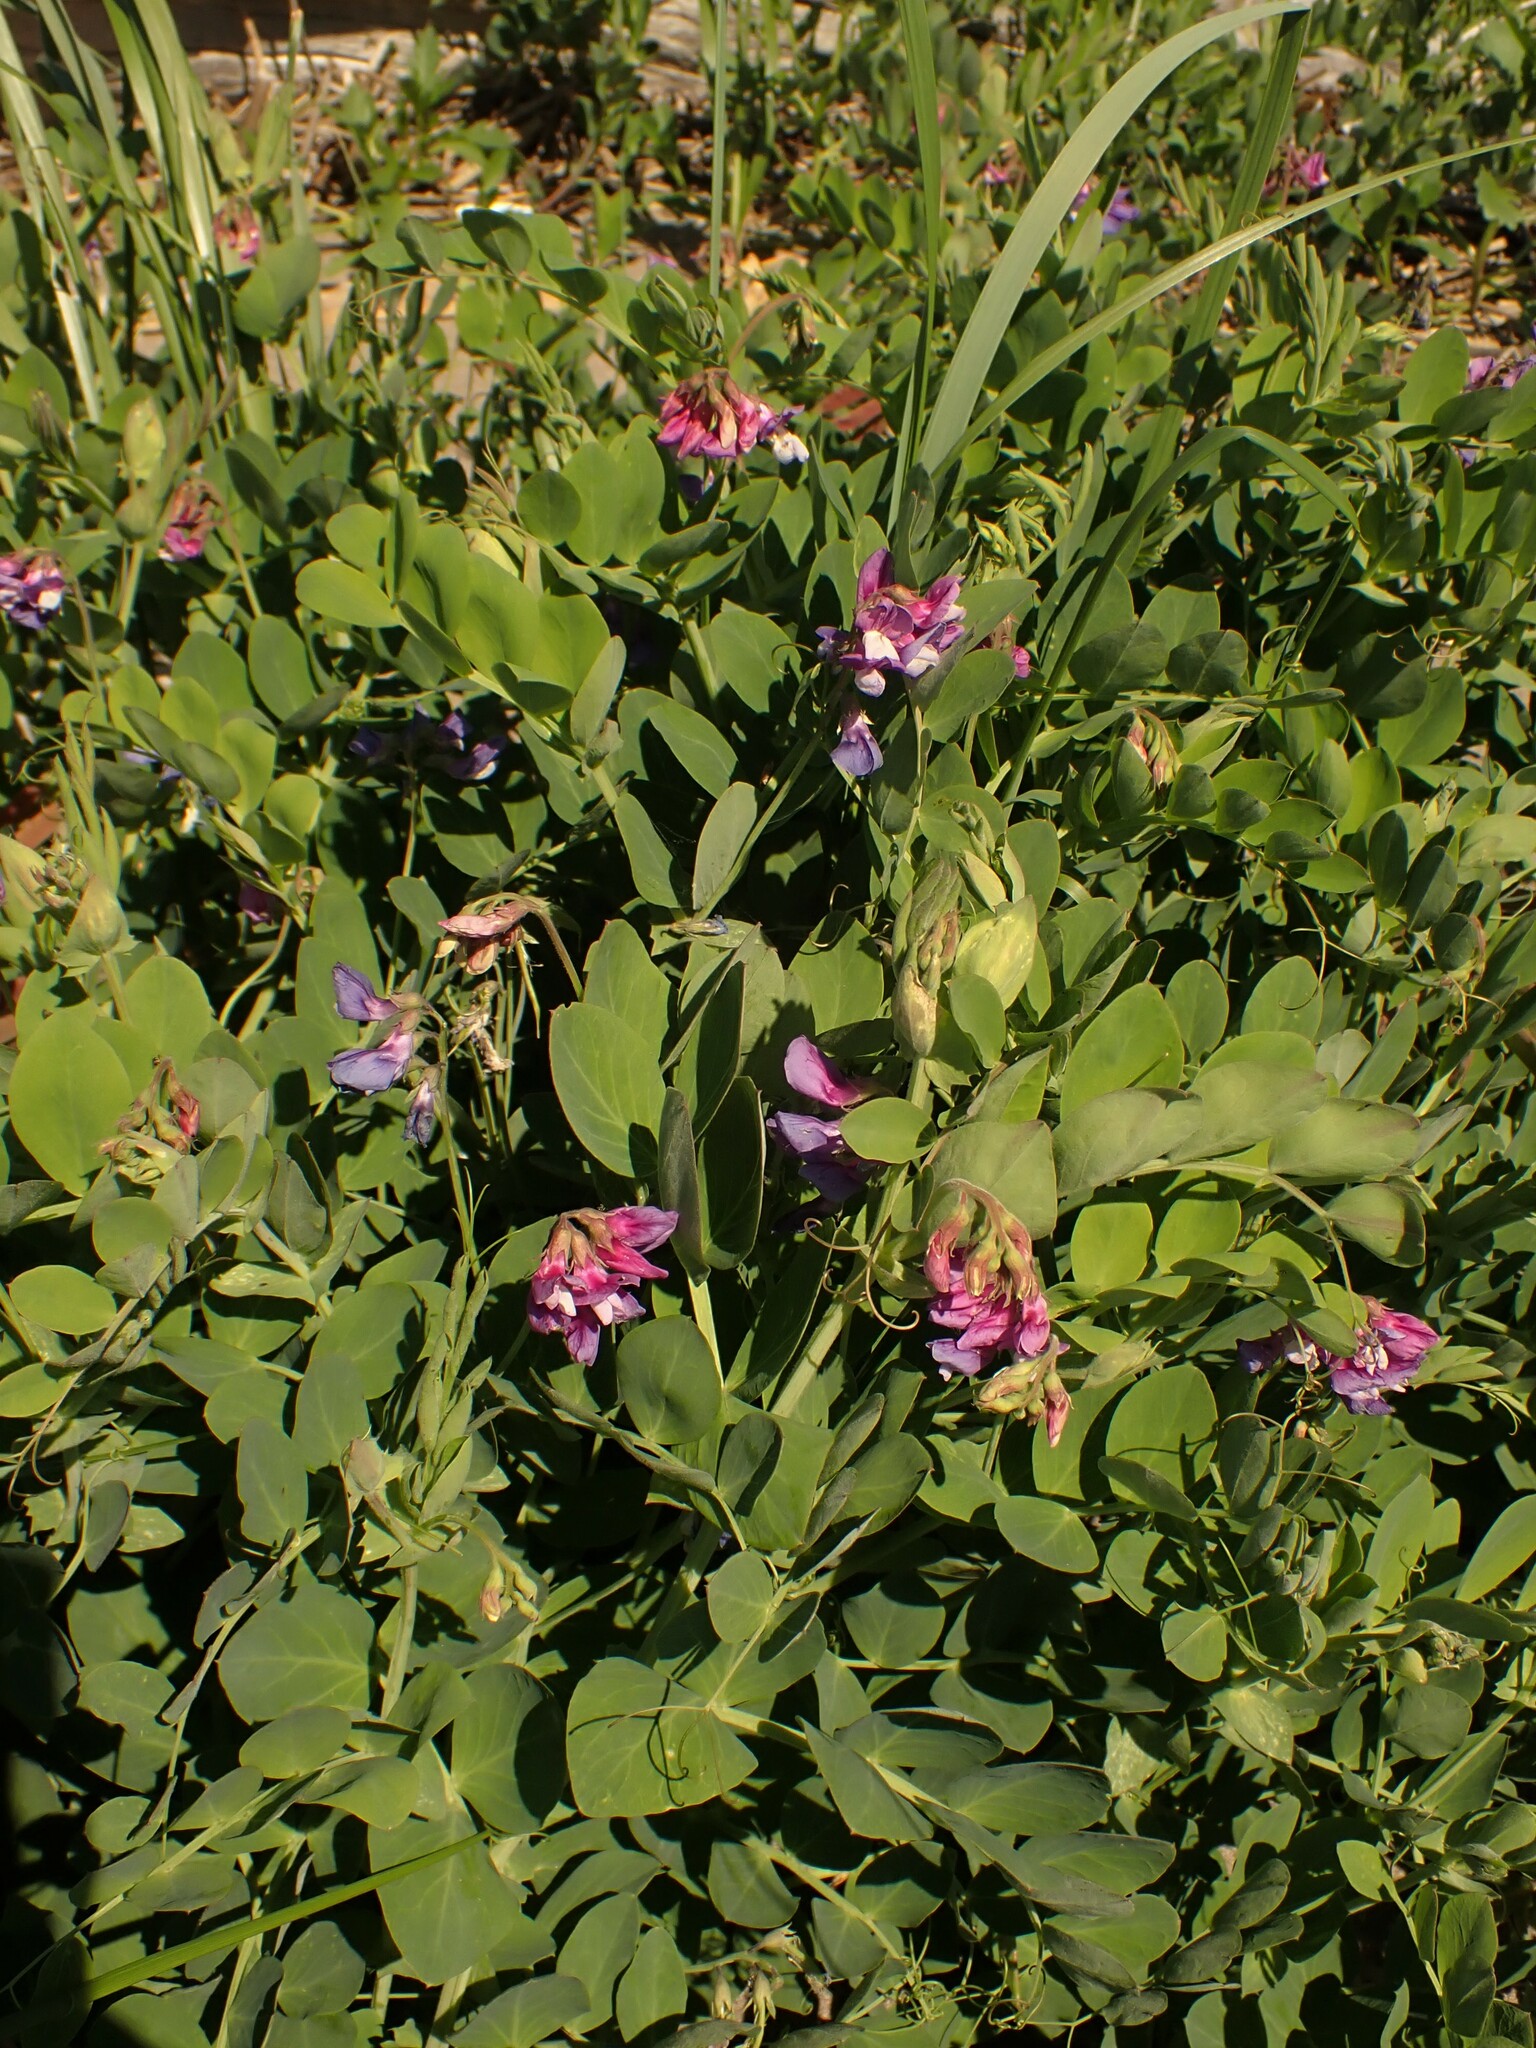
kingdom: Plantae
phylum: Tracheophyta
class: Magnoliopsida
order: Fabales
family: Fabaceae
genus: Lathyrus
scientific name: Lathyrus japonicus
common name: Sea pea
